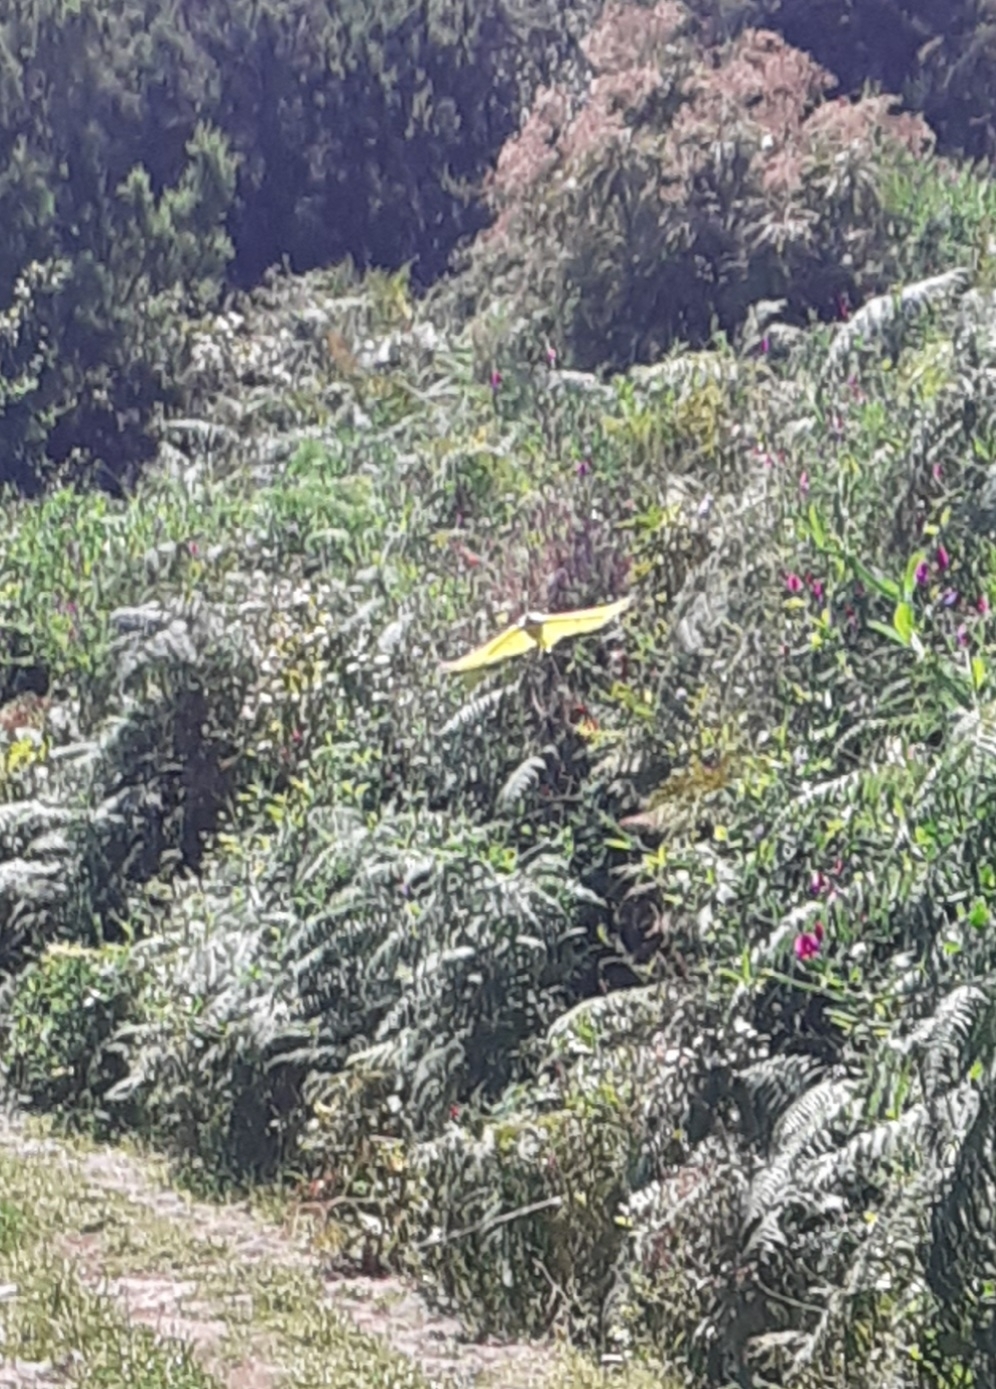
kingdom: Animalia
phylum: Arthropoda
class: Insecta
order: Lepidoptera
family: Pieridae
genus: Gonepteryx
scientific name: Gonepteryx cleobule
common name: Canary brimstone
